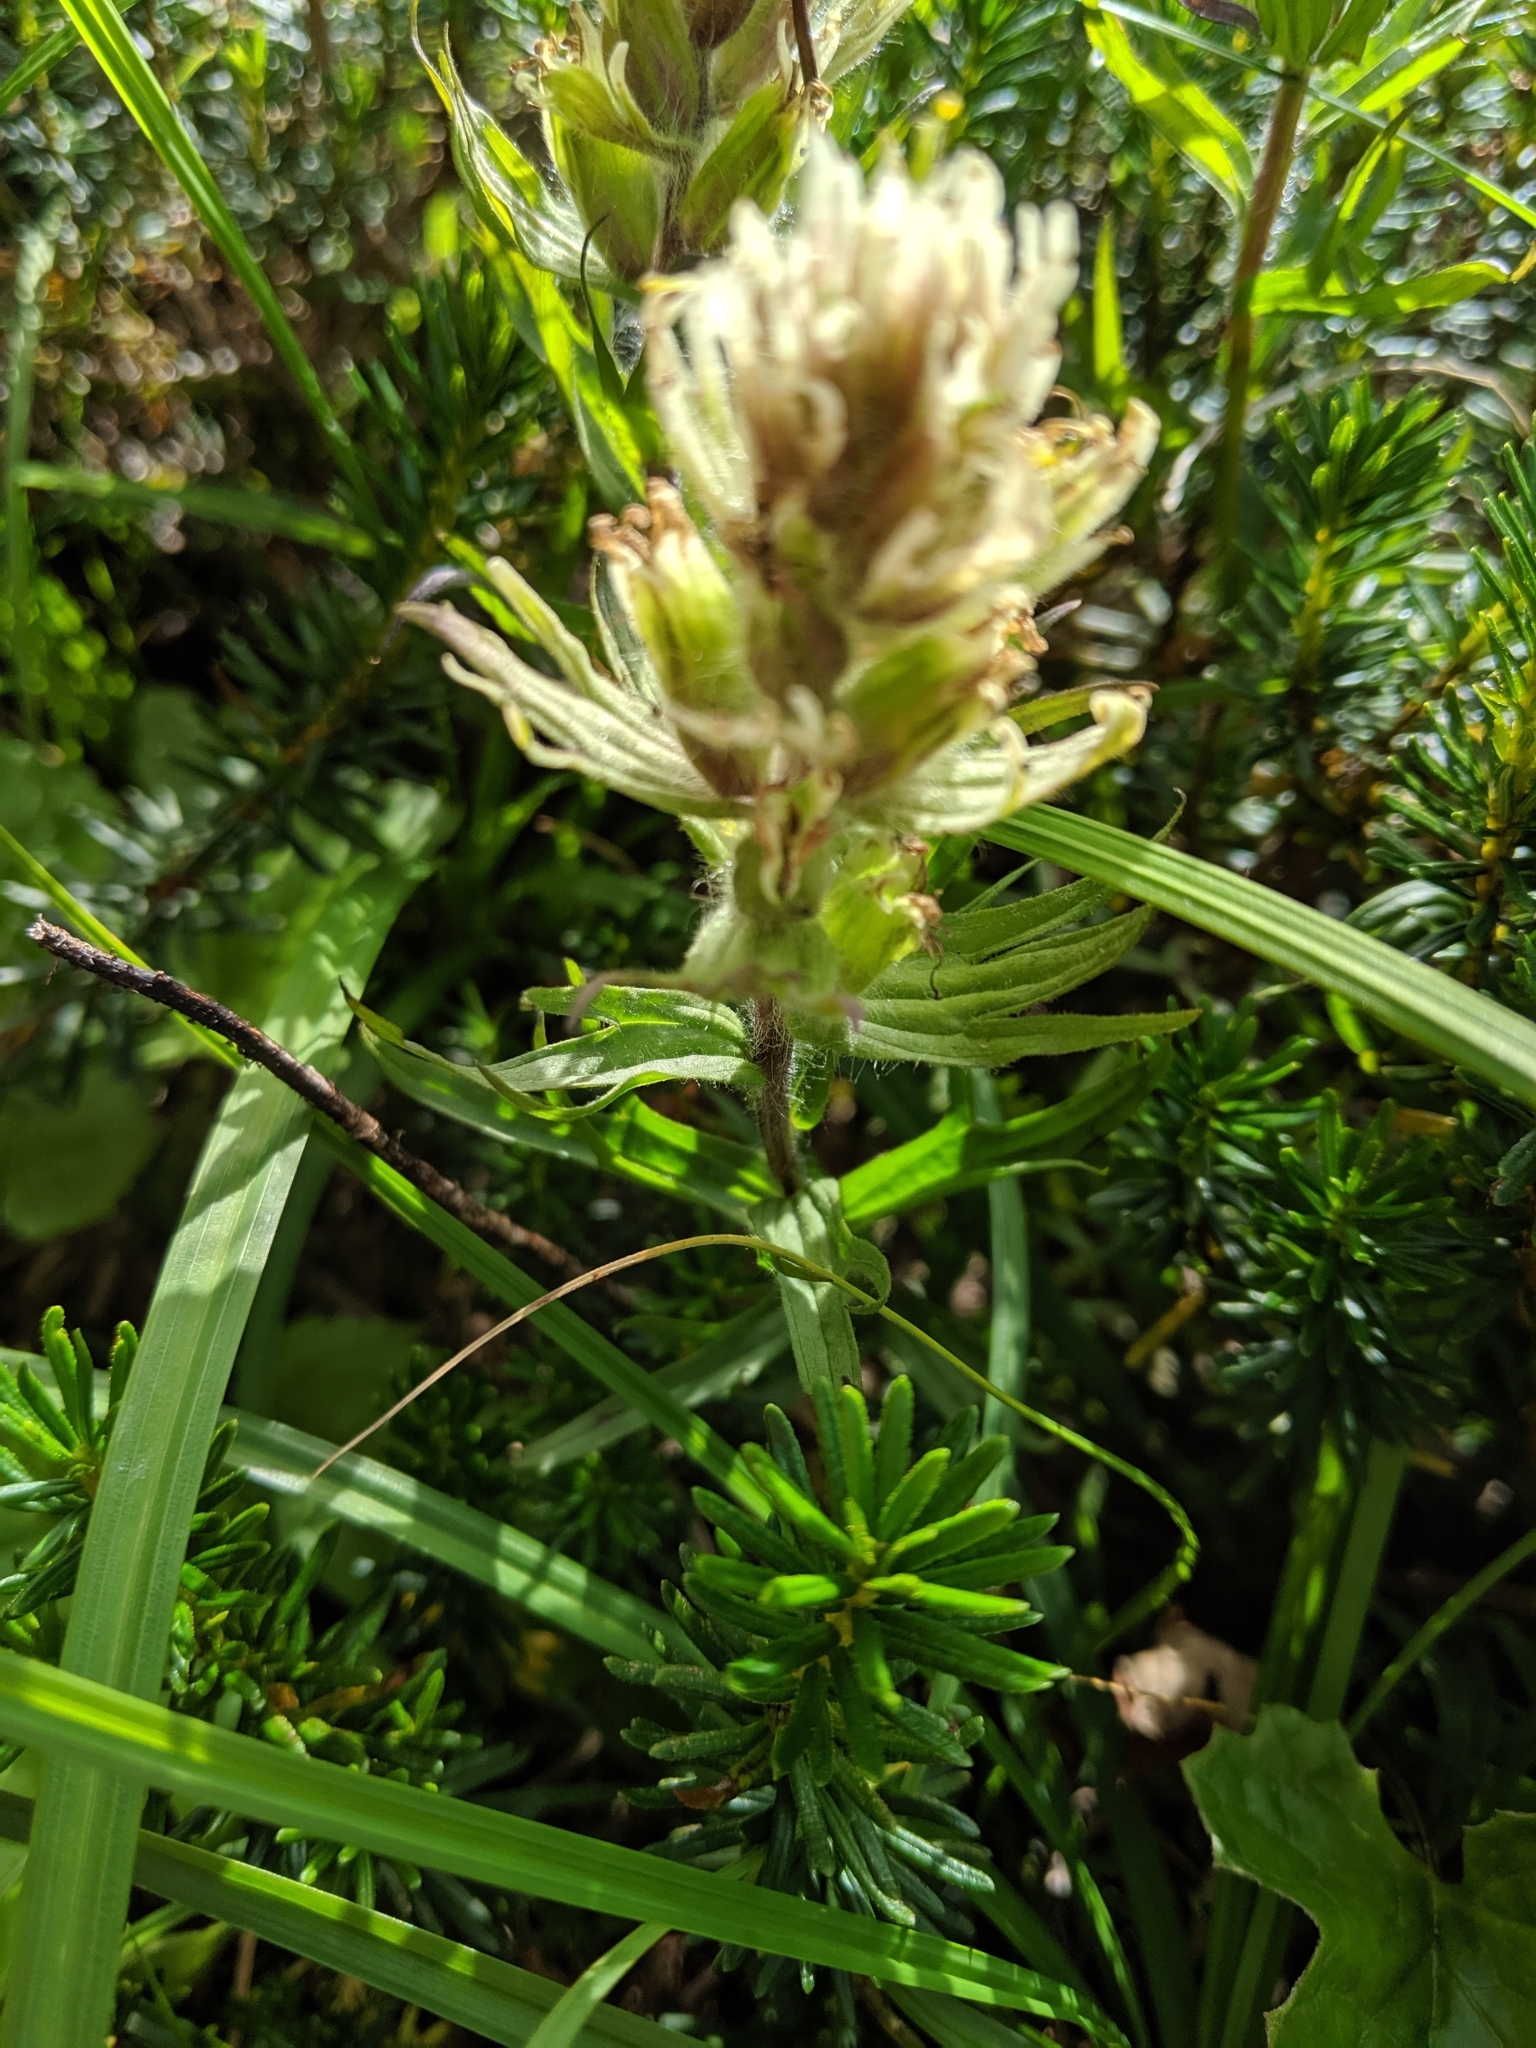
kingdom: Plantae
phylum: Tracheophyta
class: Magnoliopsida
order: Lamiales
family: Orobanchaceae
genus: Castilleja
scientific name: Castilleja parviflora
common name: Mountain paintbrush
